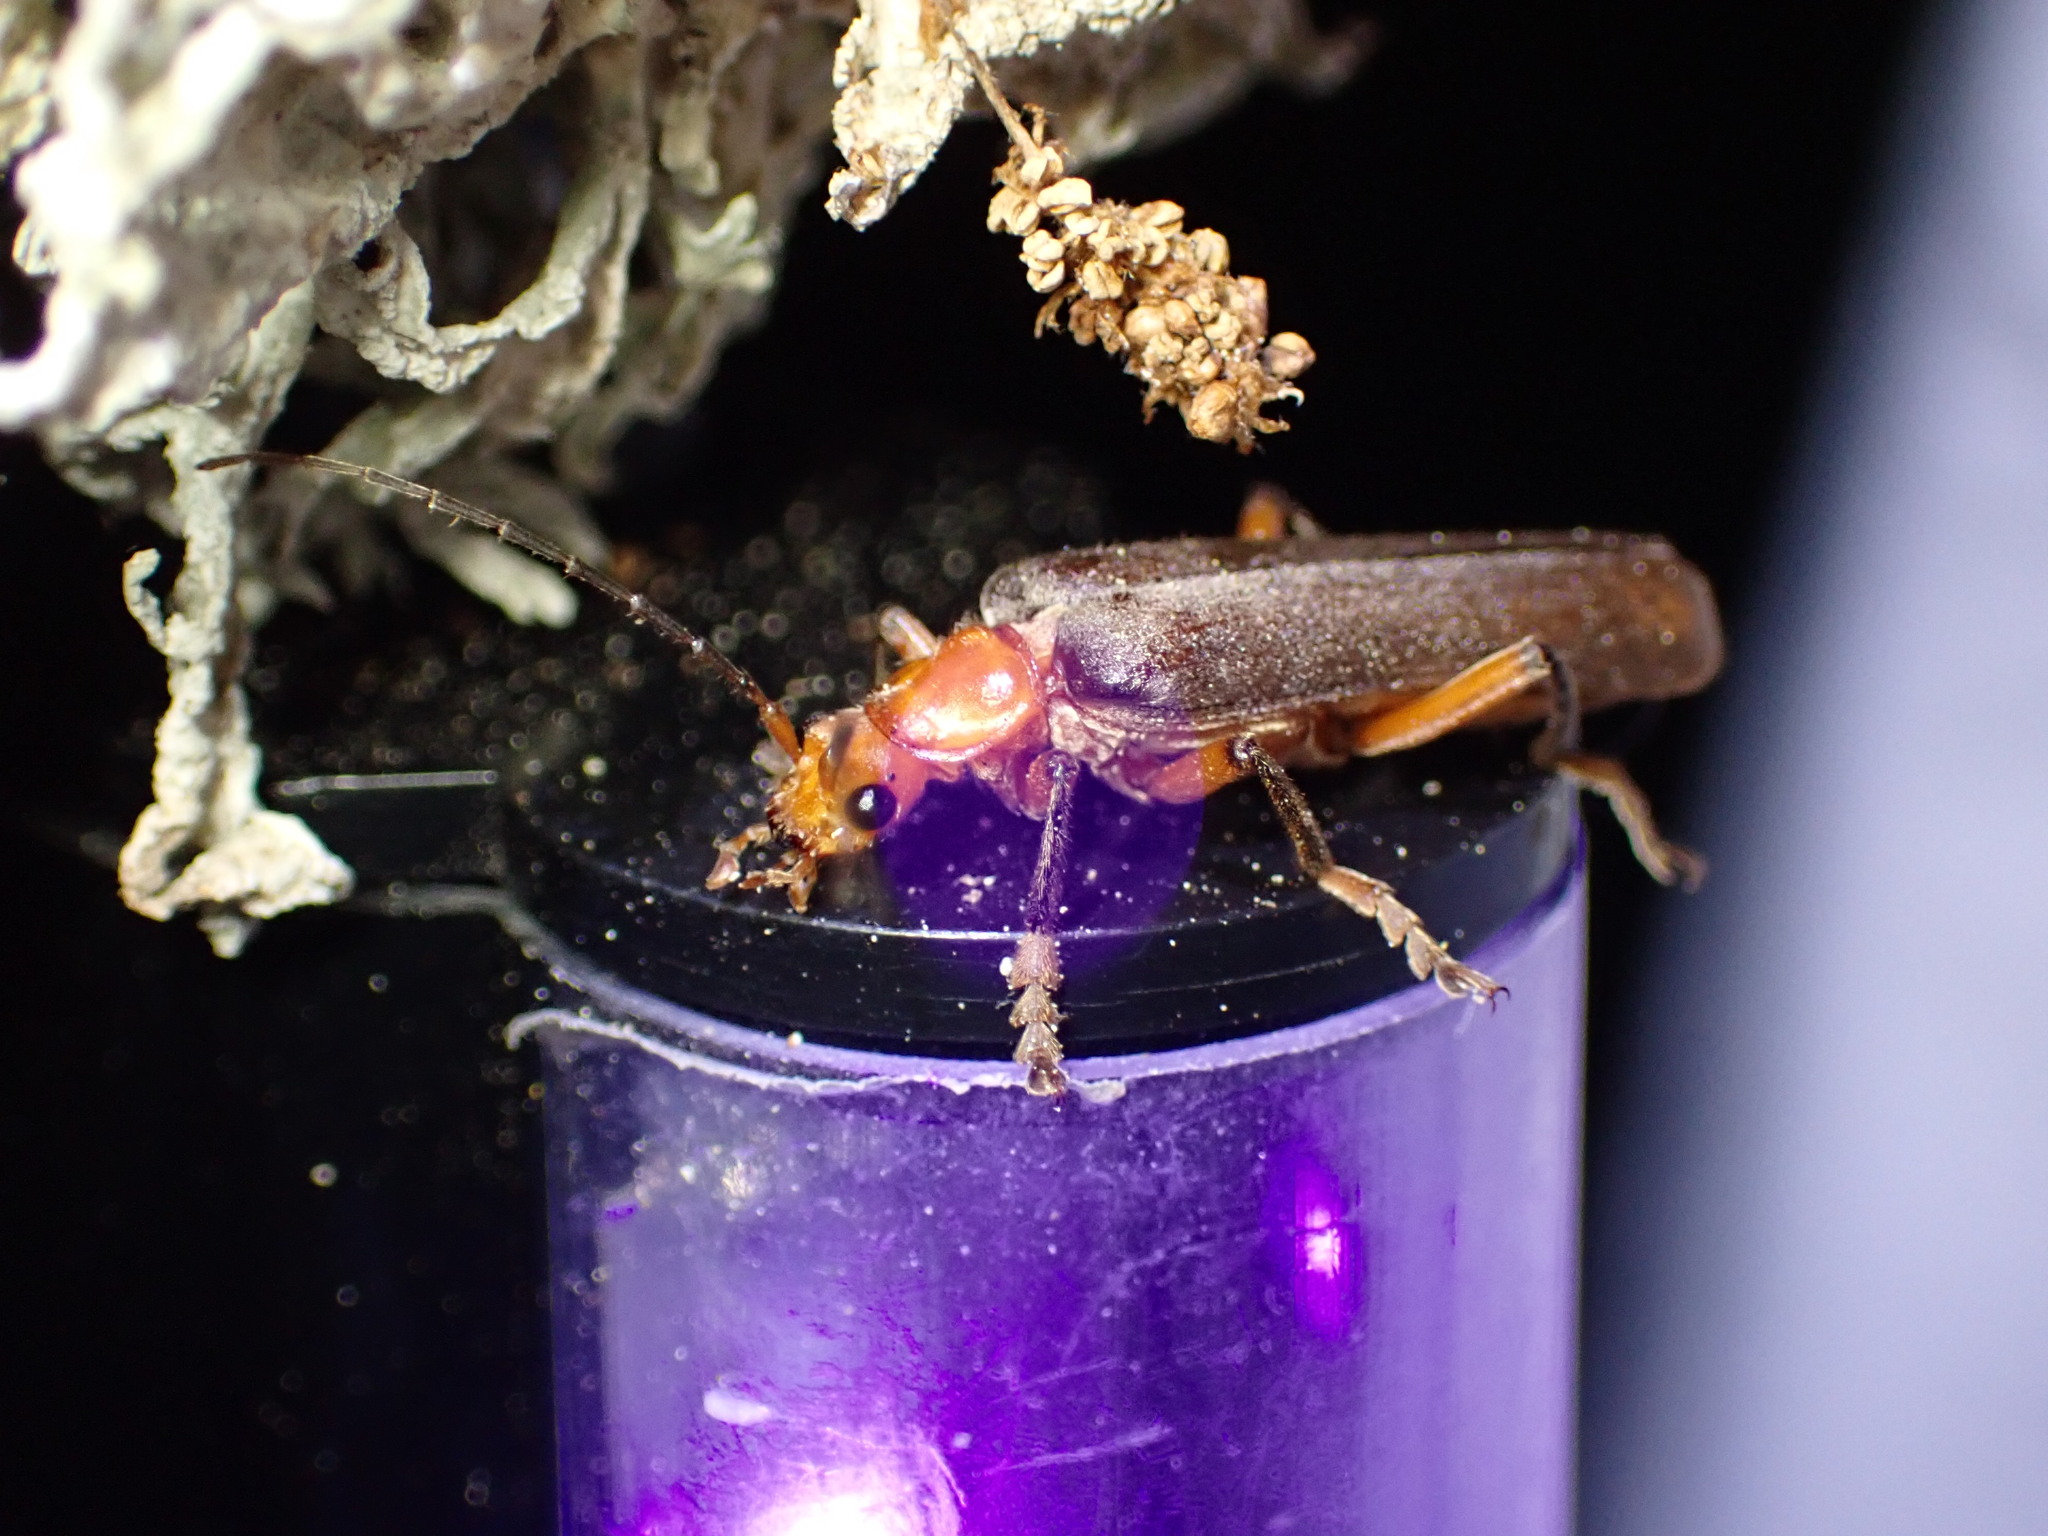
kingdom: Animalia
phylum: Arthropoda
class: Insecta
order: Coleoptera
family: Cantharidae
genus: Pacificanthia
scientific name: Pacificanthia consors
